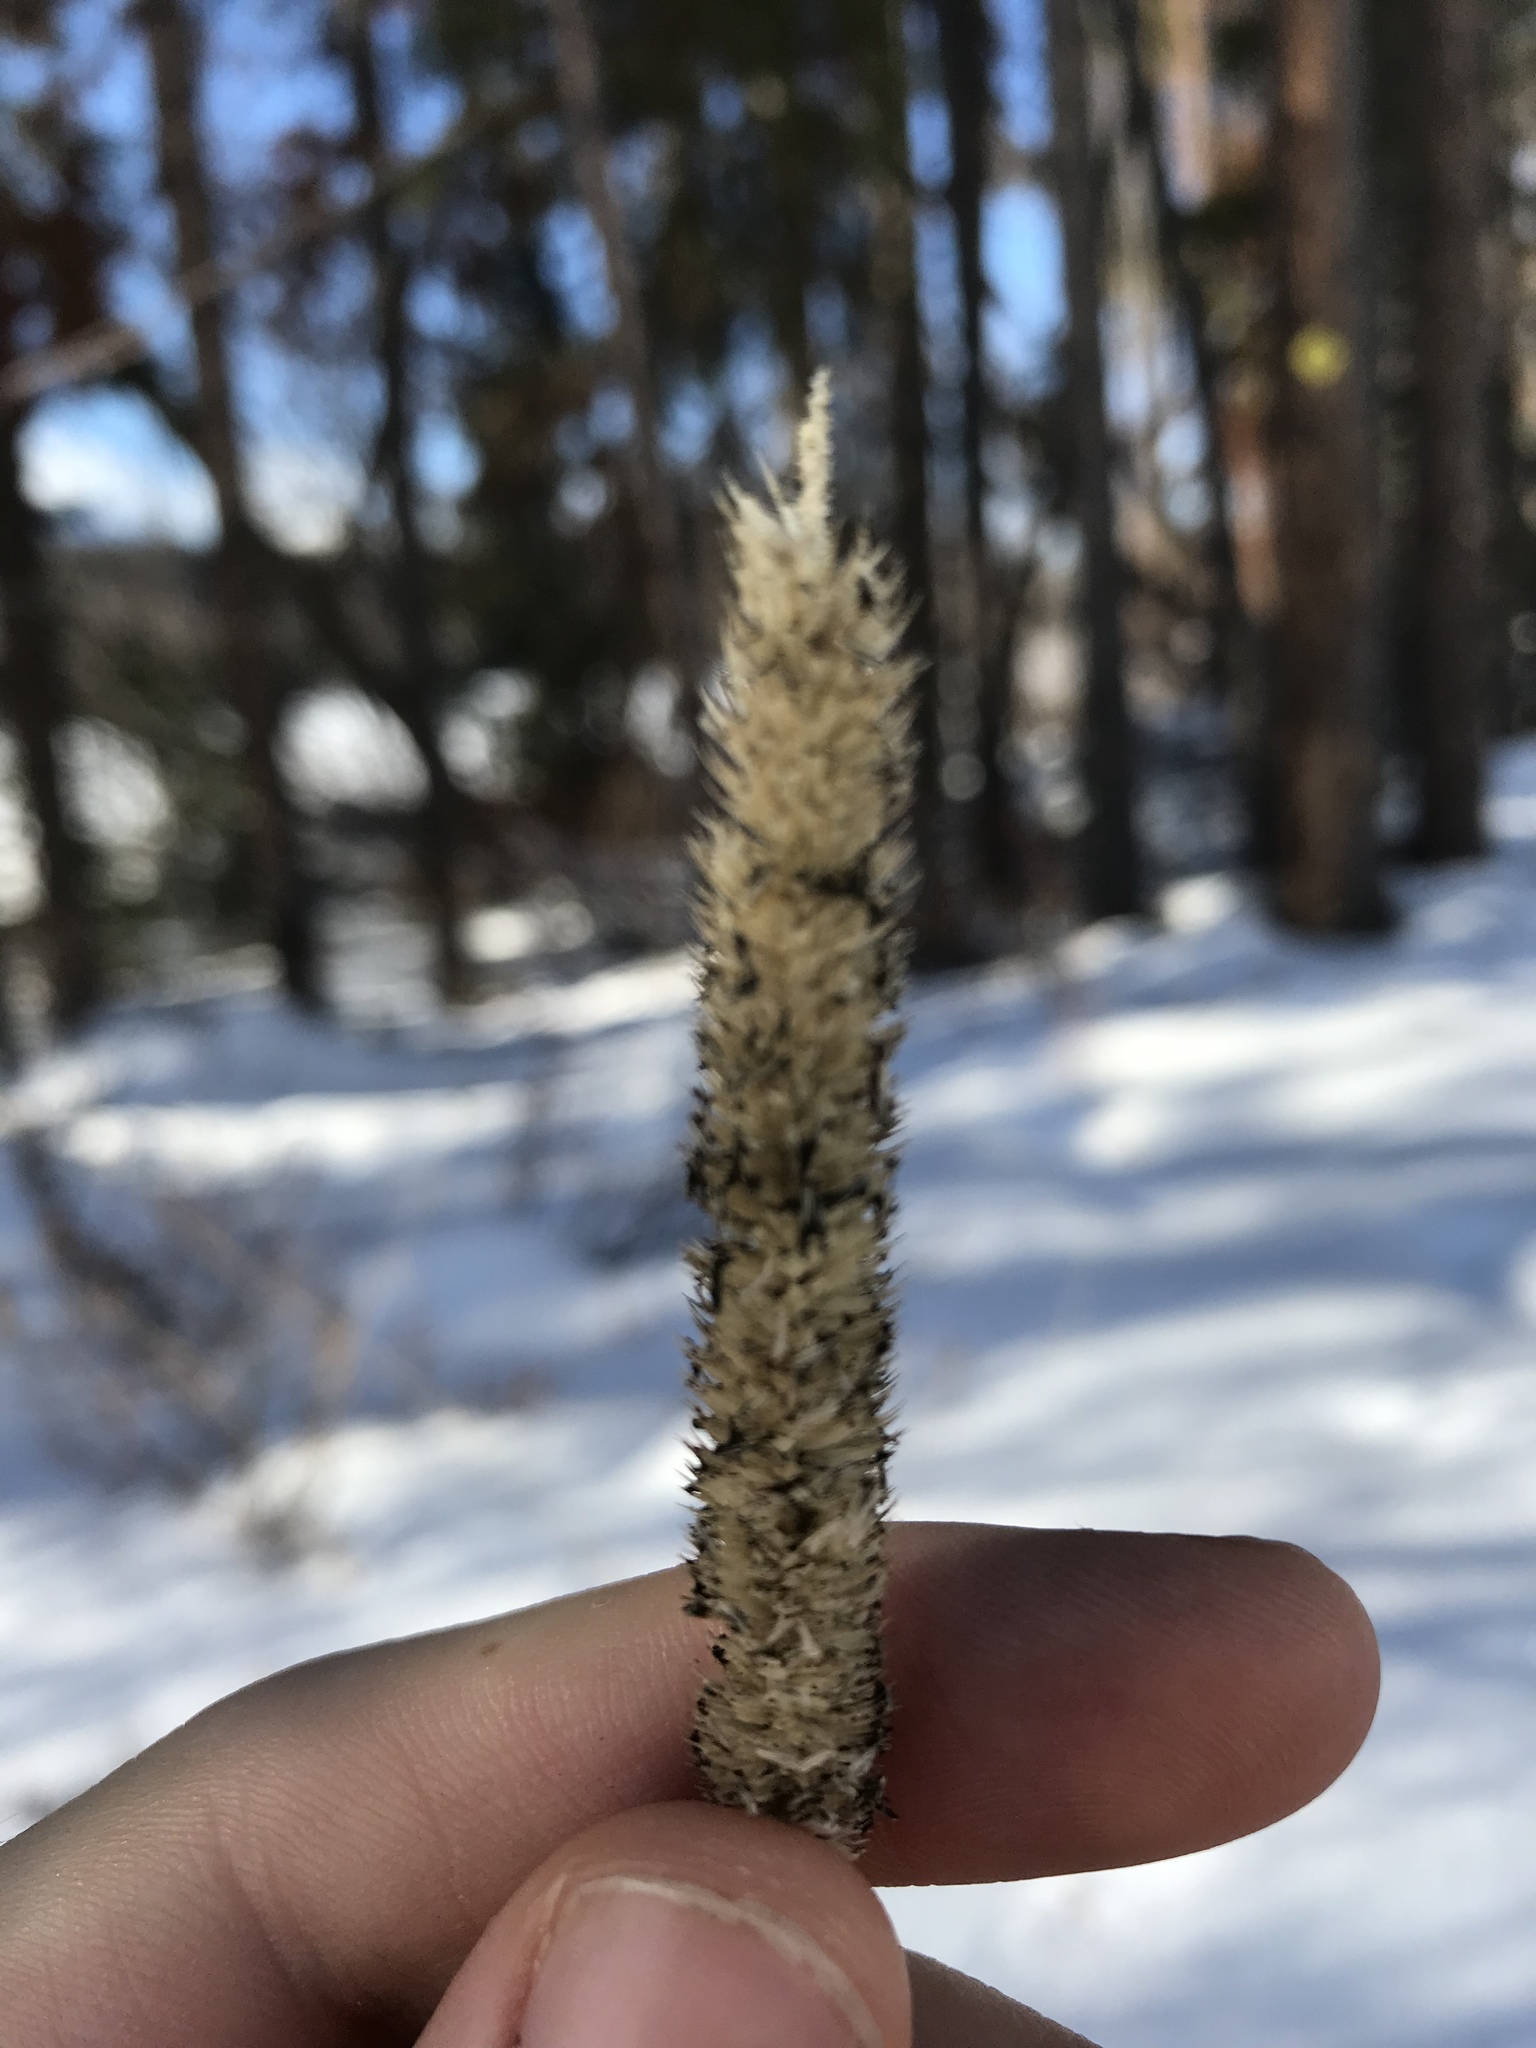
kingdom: Plantae
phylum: Tracheophyta
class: Liliopsida
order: Poales
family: Poaceae
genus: Phleum
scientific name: Phleum pratense
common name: Timothy grass
